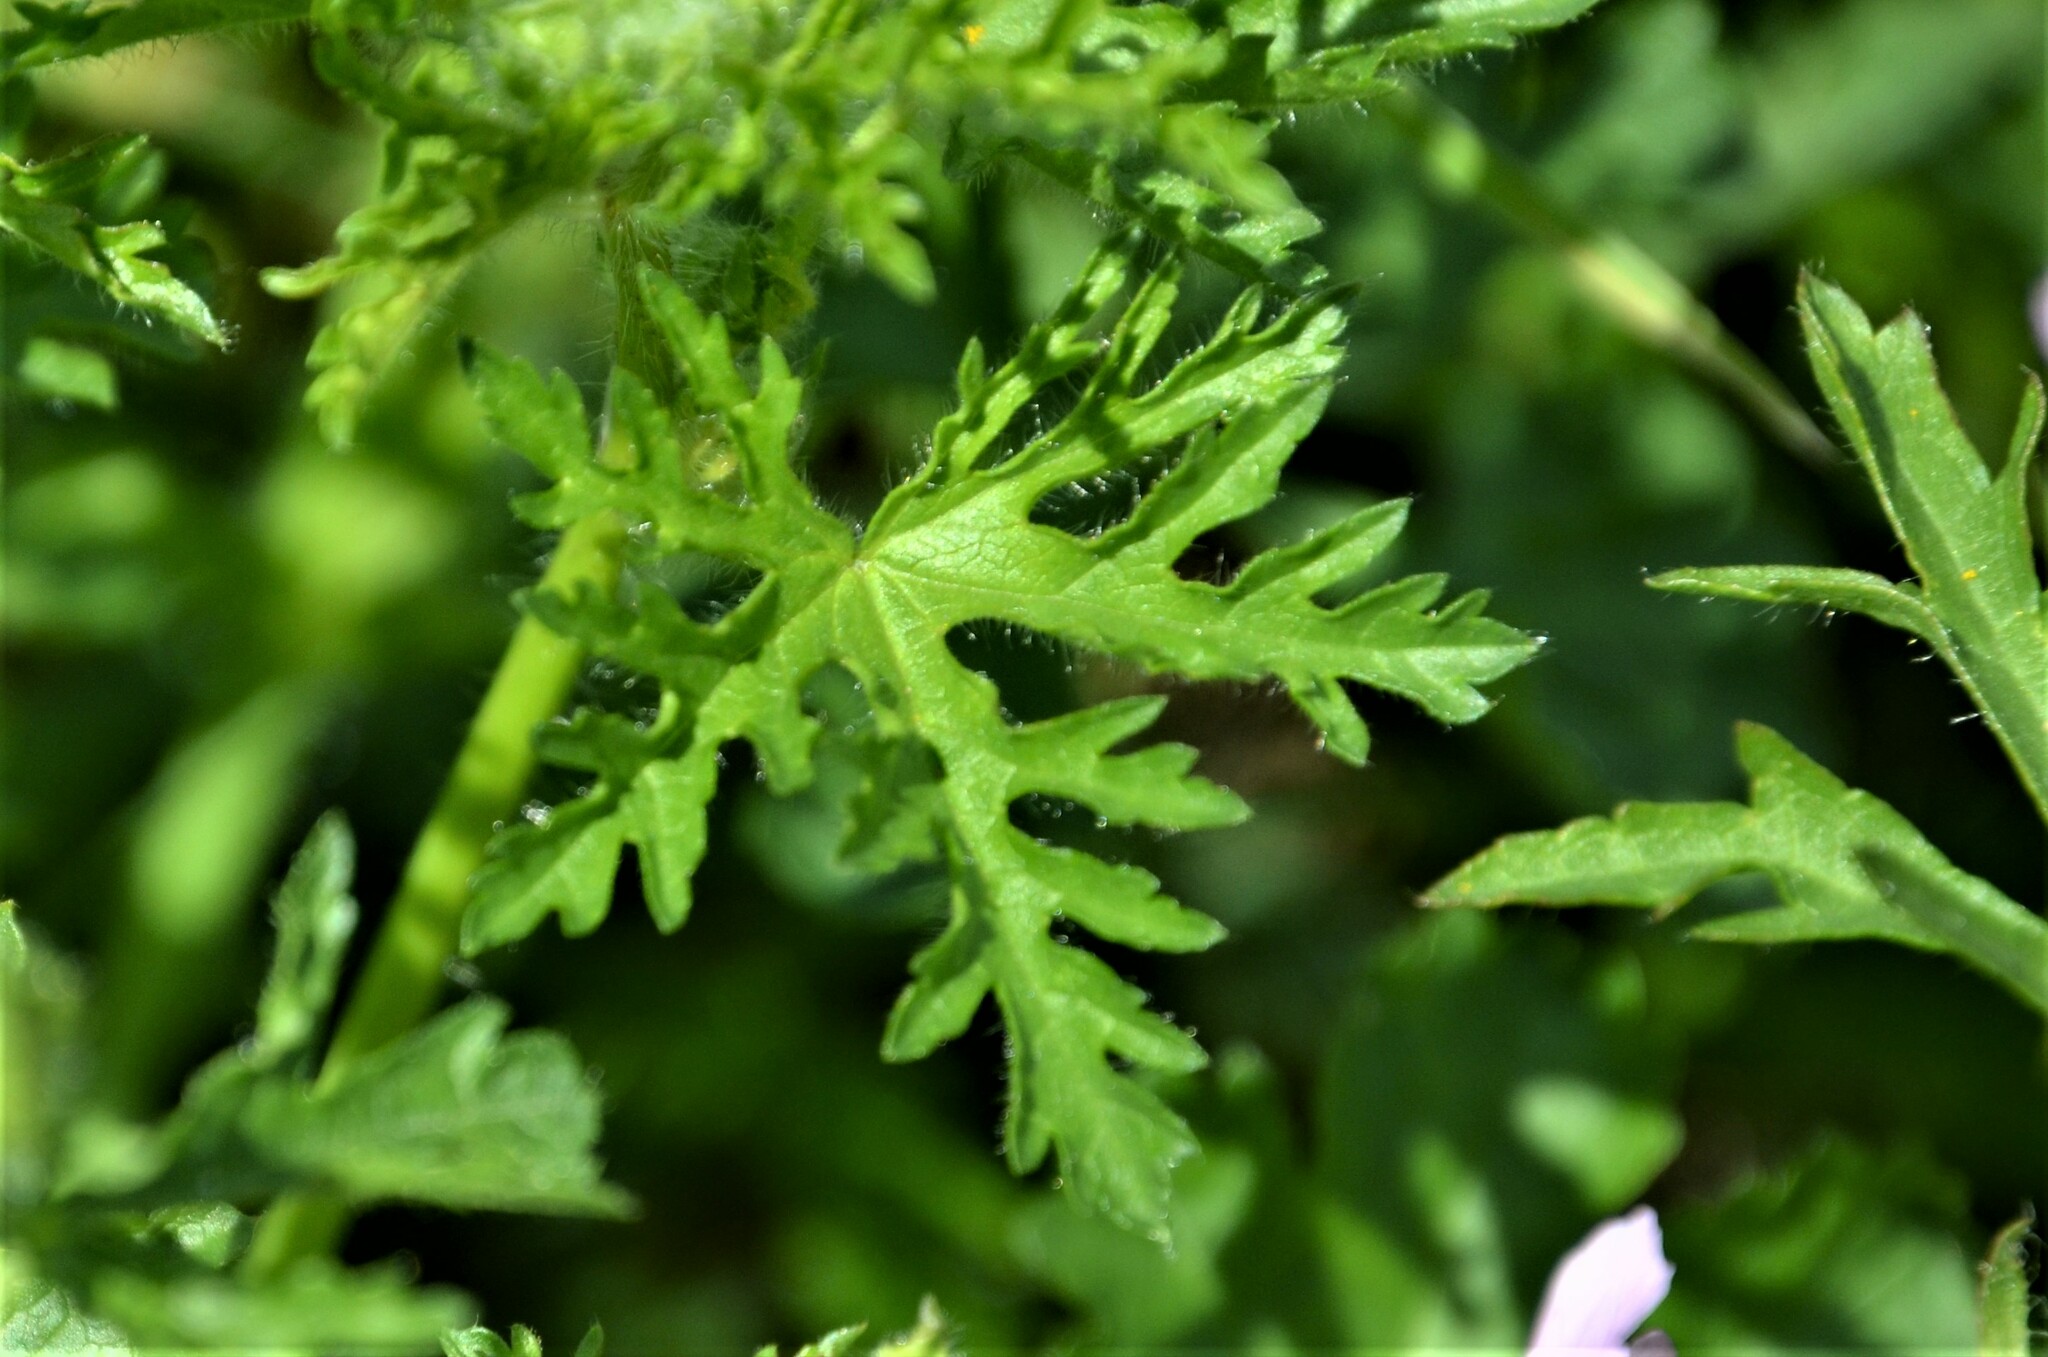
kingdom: Plantae
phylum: Tracheophyta
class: Magnoliopsida
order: Malvales
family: Malvaceae
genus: Malva
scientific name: Malva moschata
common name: Musk mallow
